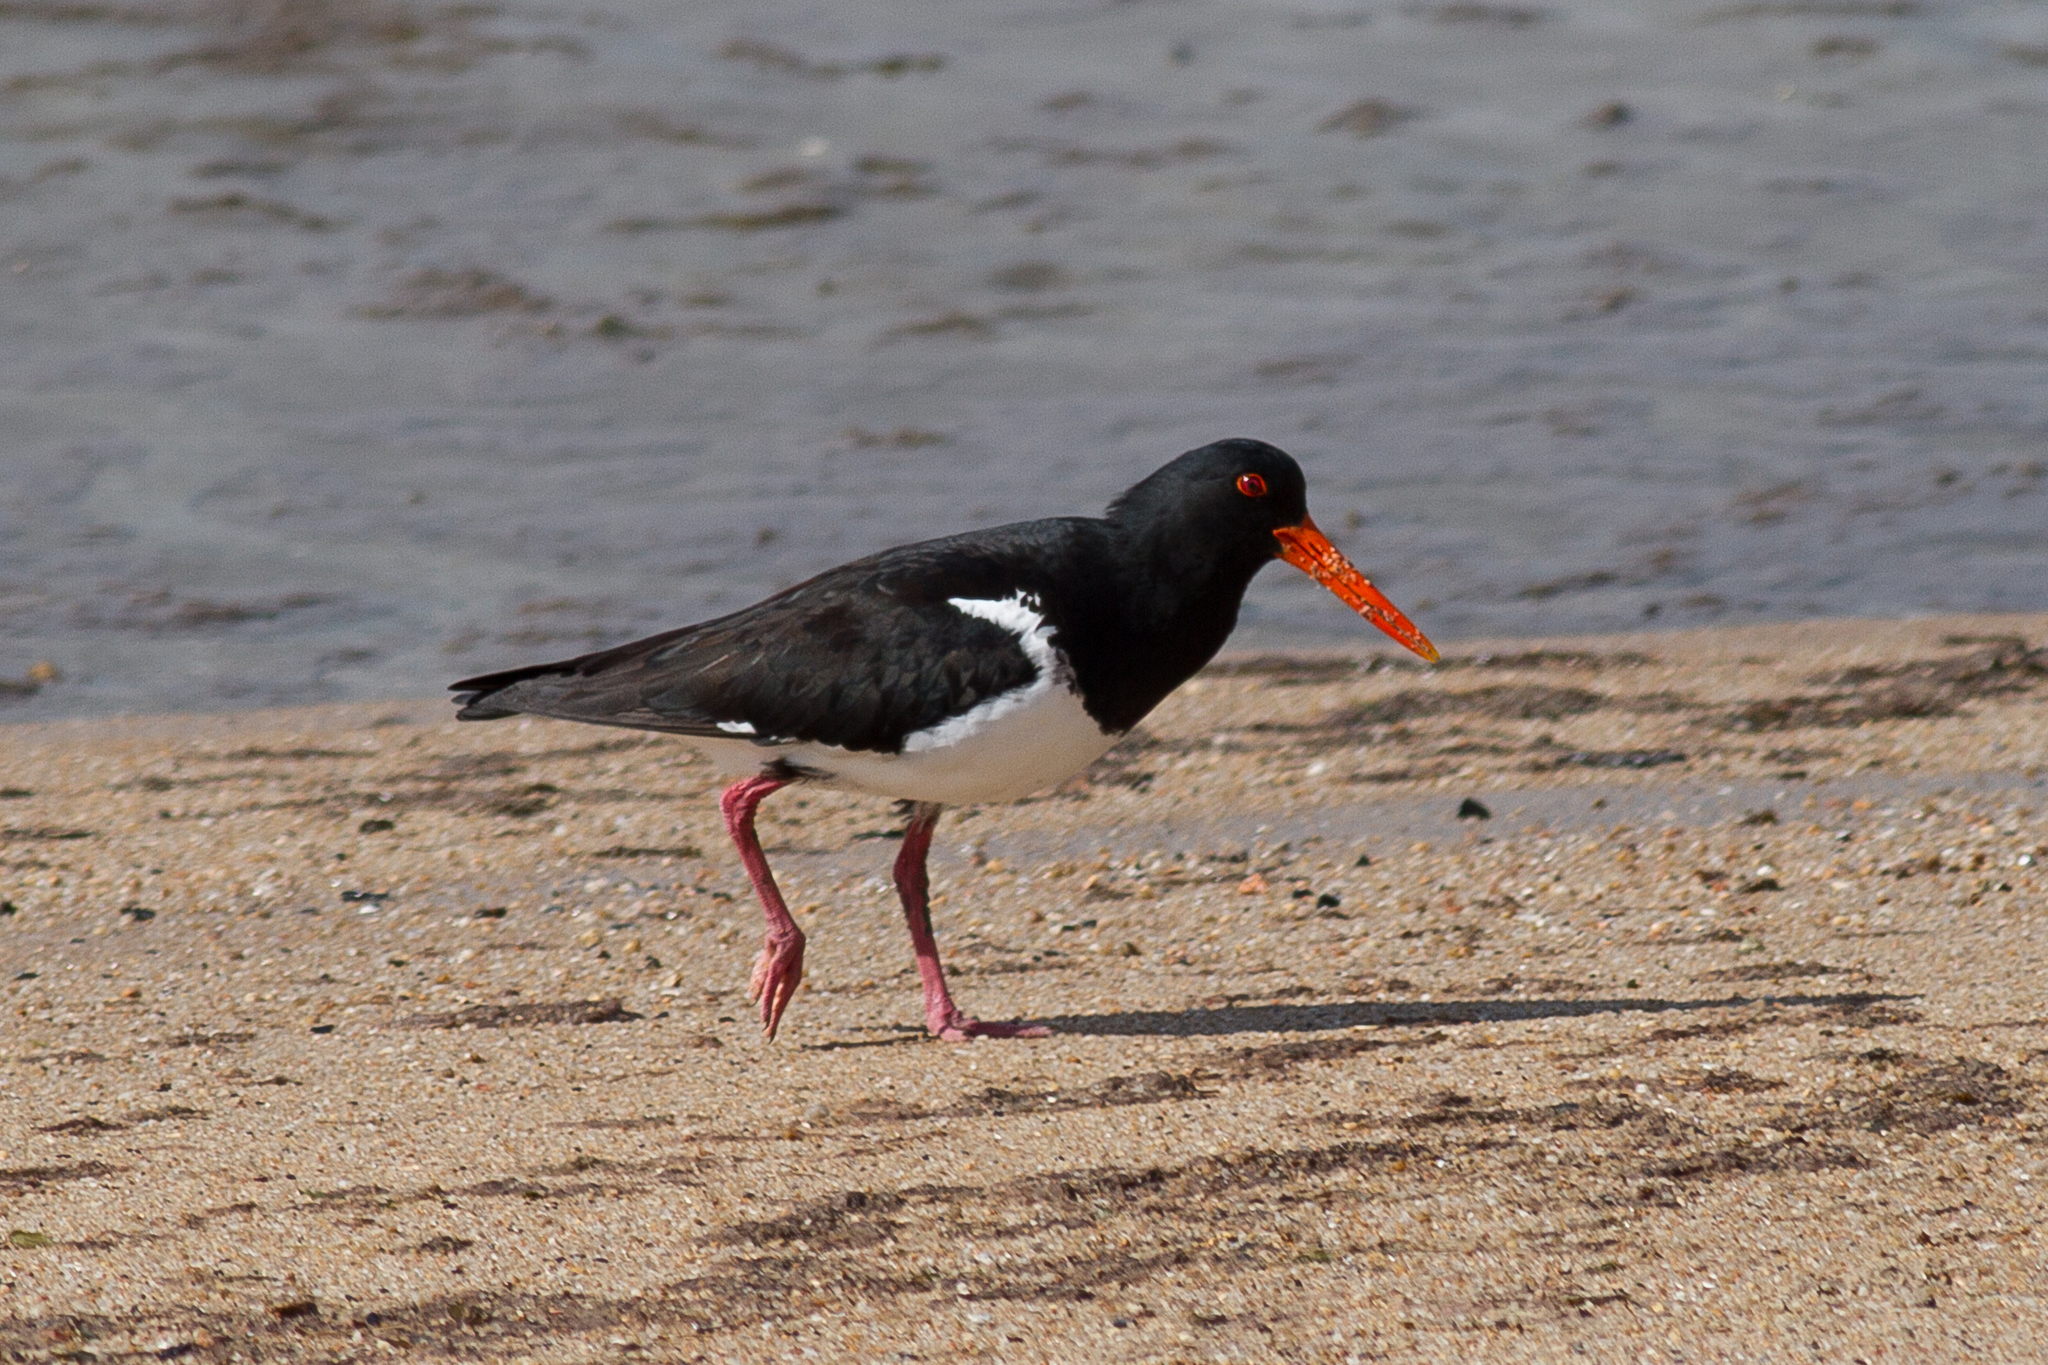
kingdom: Animalia
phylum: Chordata
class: Aves
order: Charadriiformes
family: Haematopodidae
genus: Haematopus
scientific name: Haematopus longirostris
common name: Pied oystercatcher
